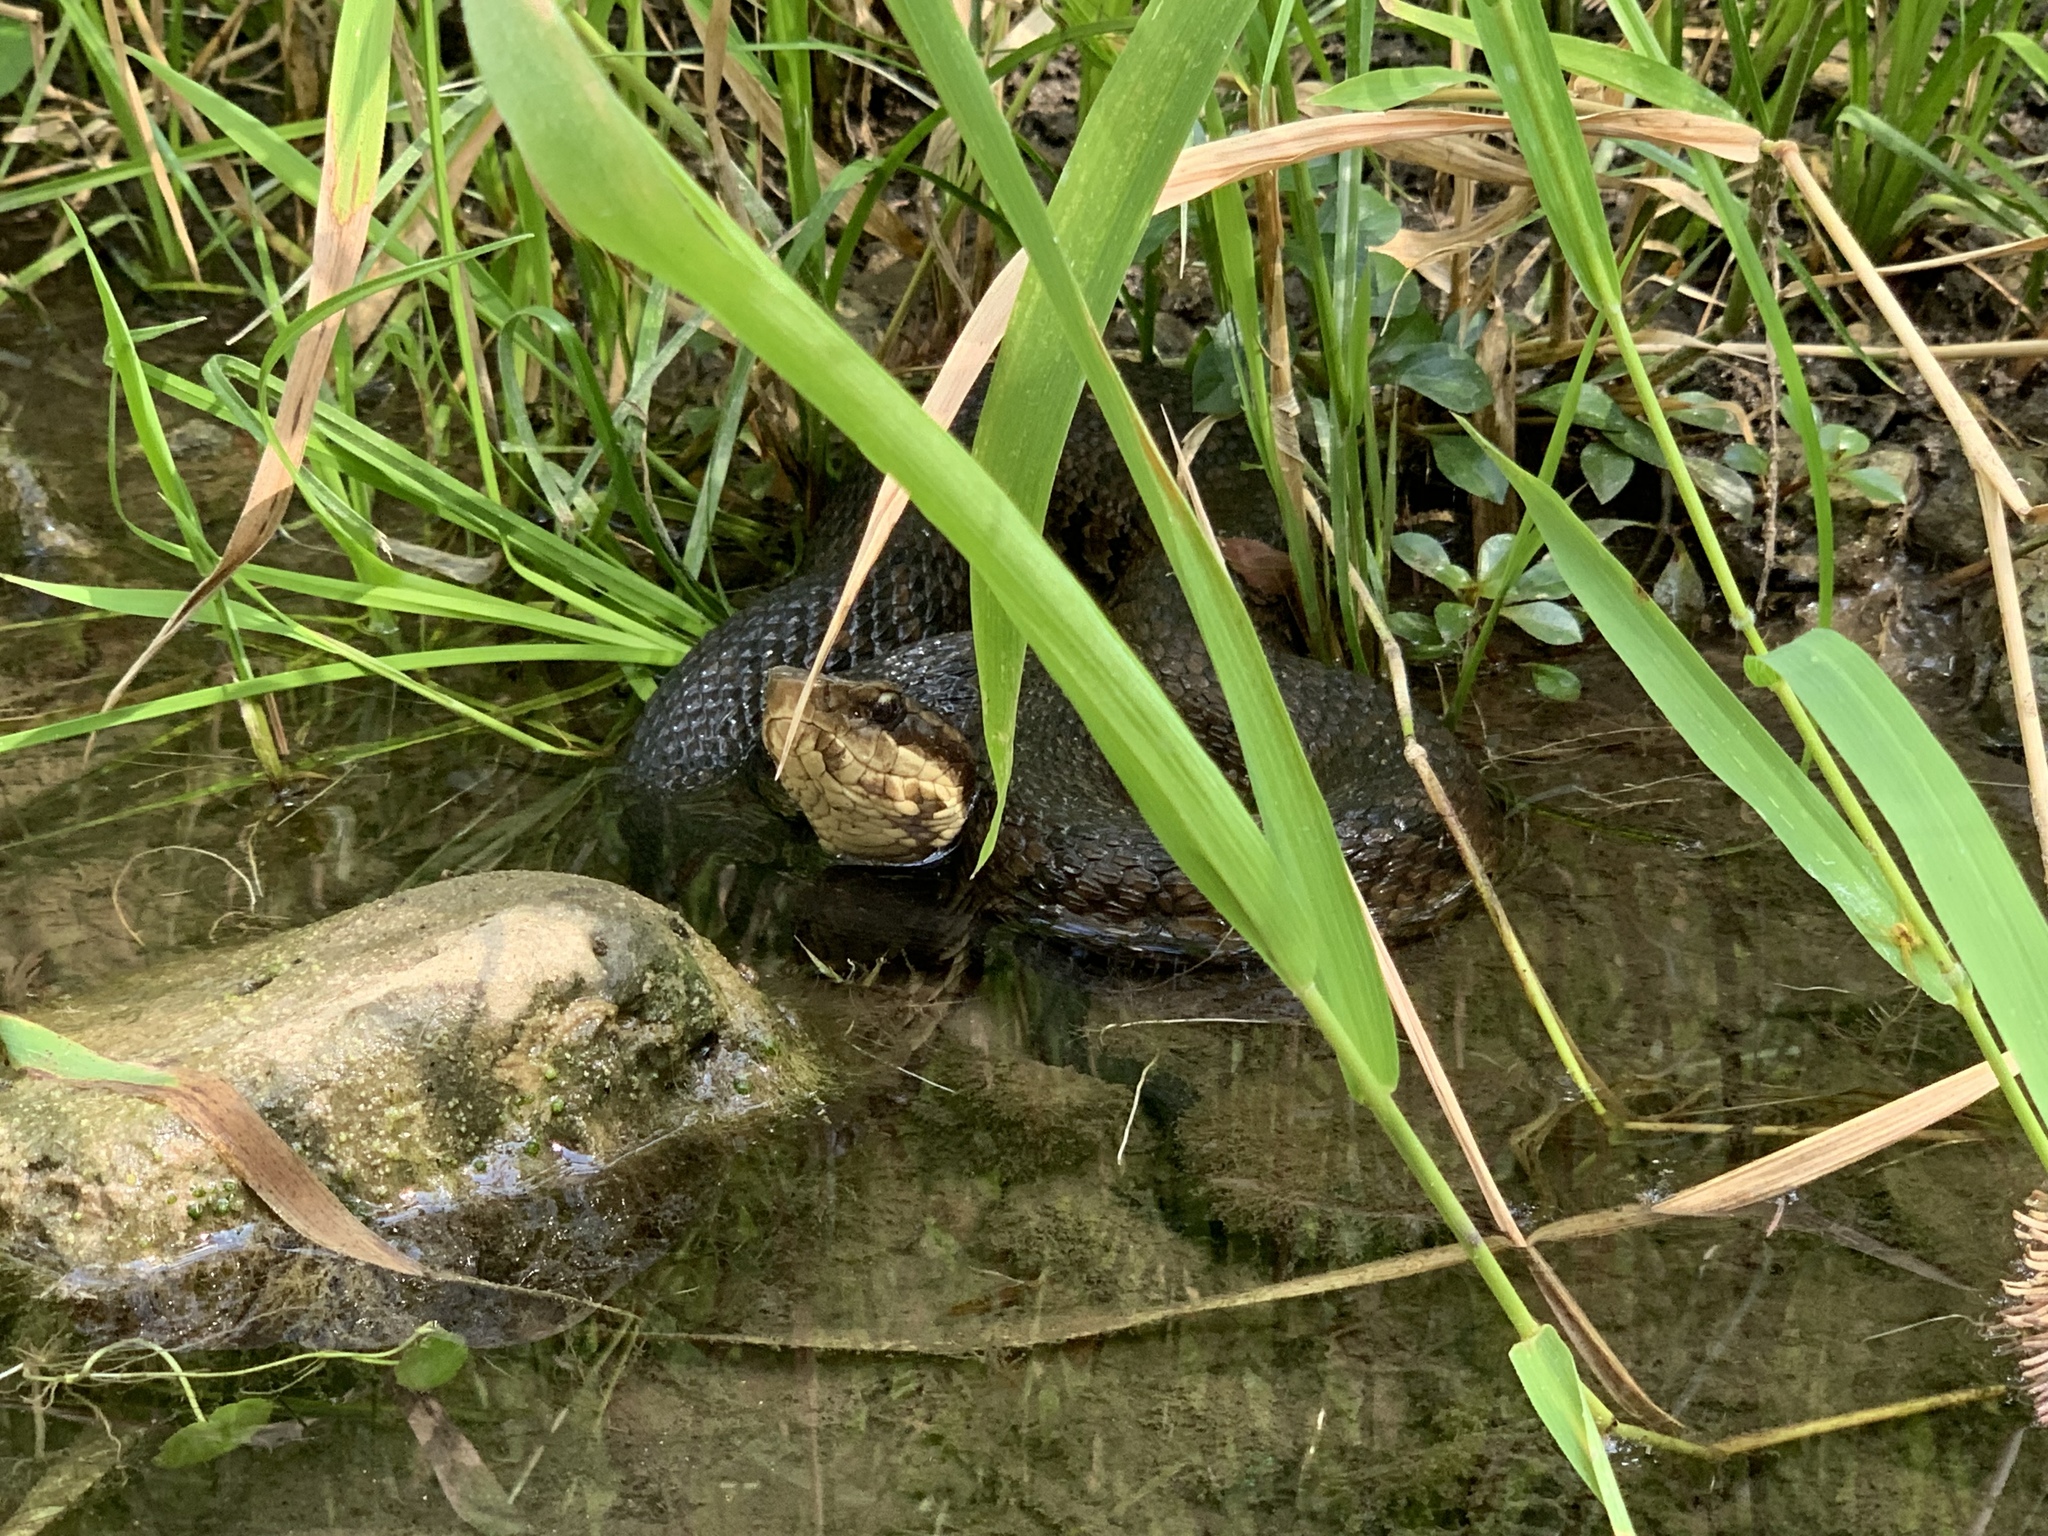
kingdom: Animalia
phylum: Chordata
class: Squamata
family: Viperidae
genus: Agkistrodon
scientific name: Agkistrodon piscivorus
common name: Cottonmouth
